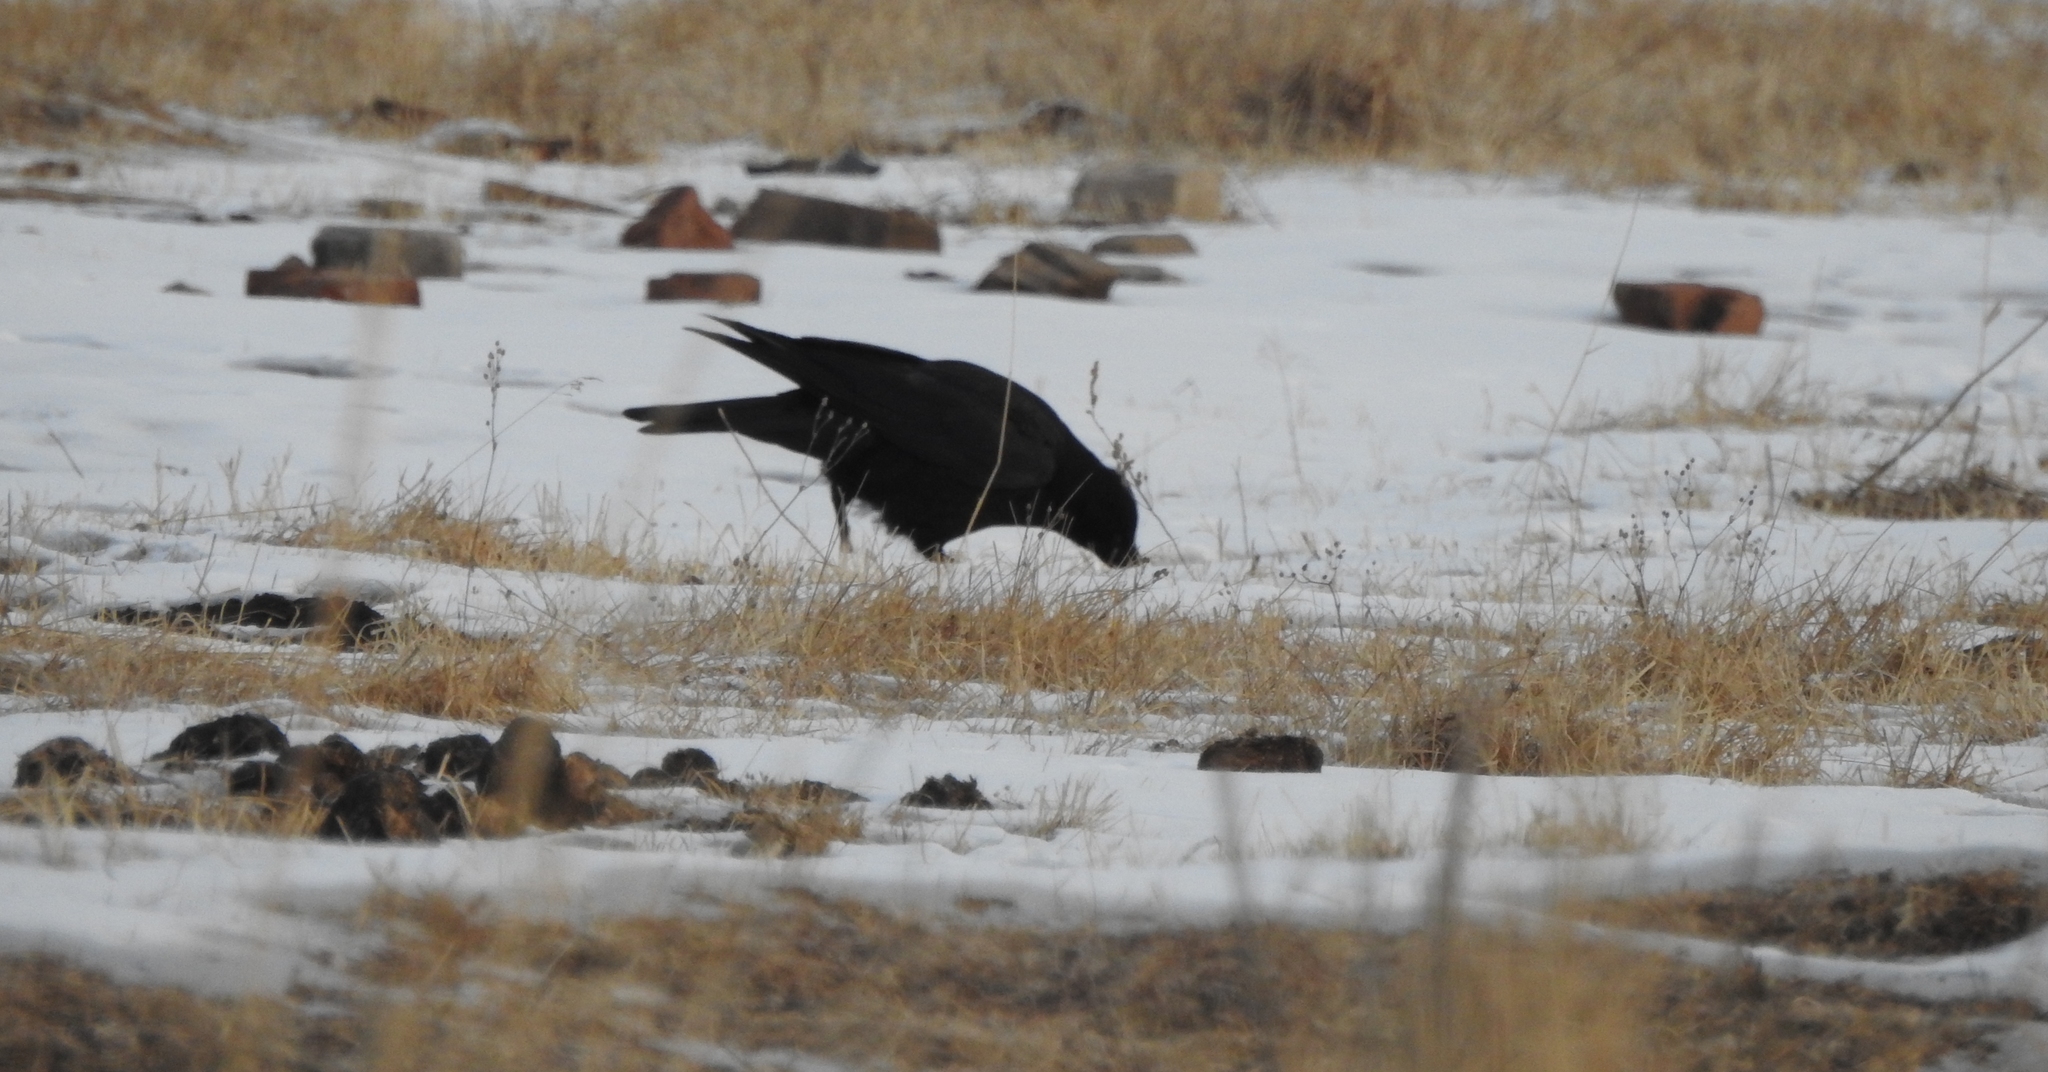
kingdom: Animalia
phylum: Chordata
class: Aves
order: Passeriformes
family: Corvidae
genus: Corvus
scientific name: Corvus corax
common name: Common raven
